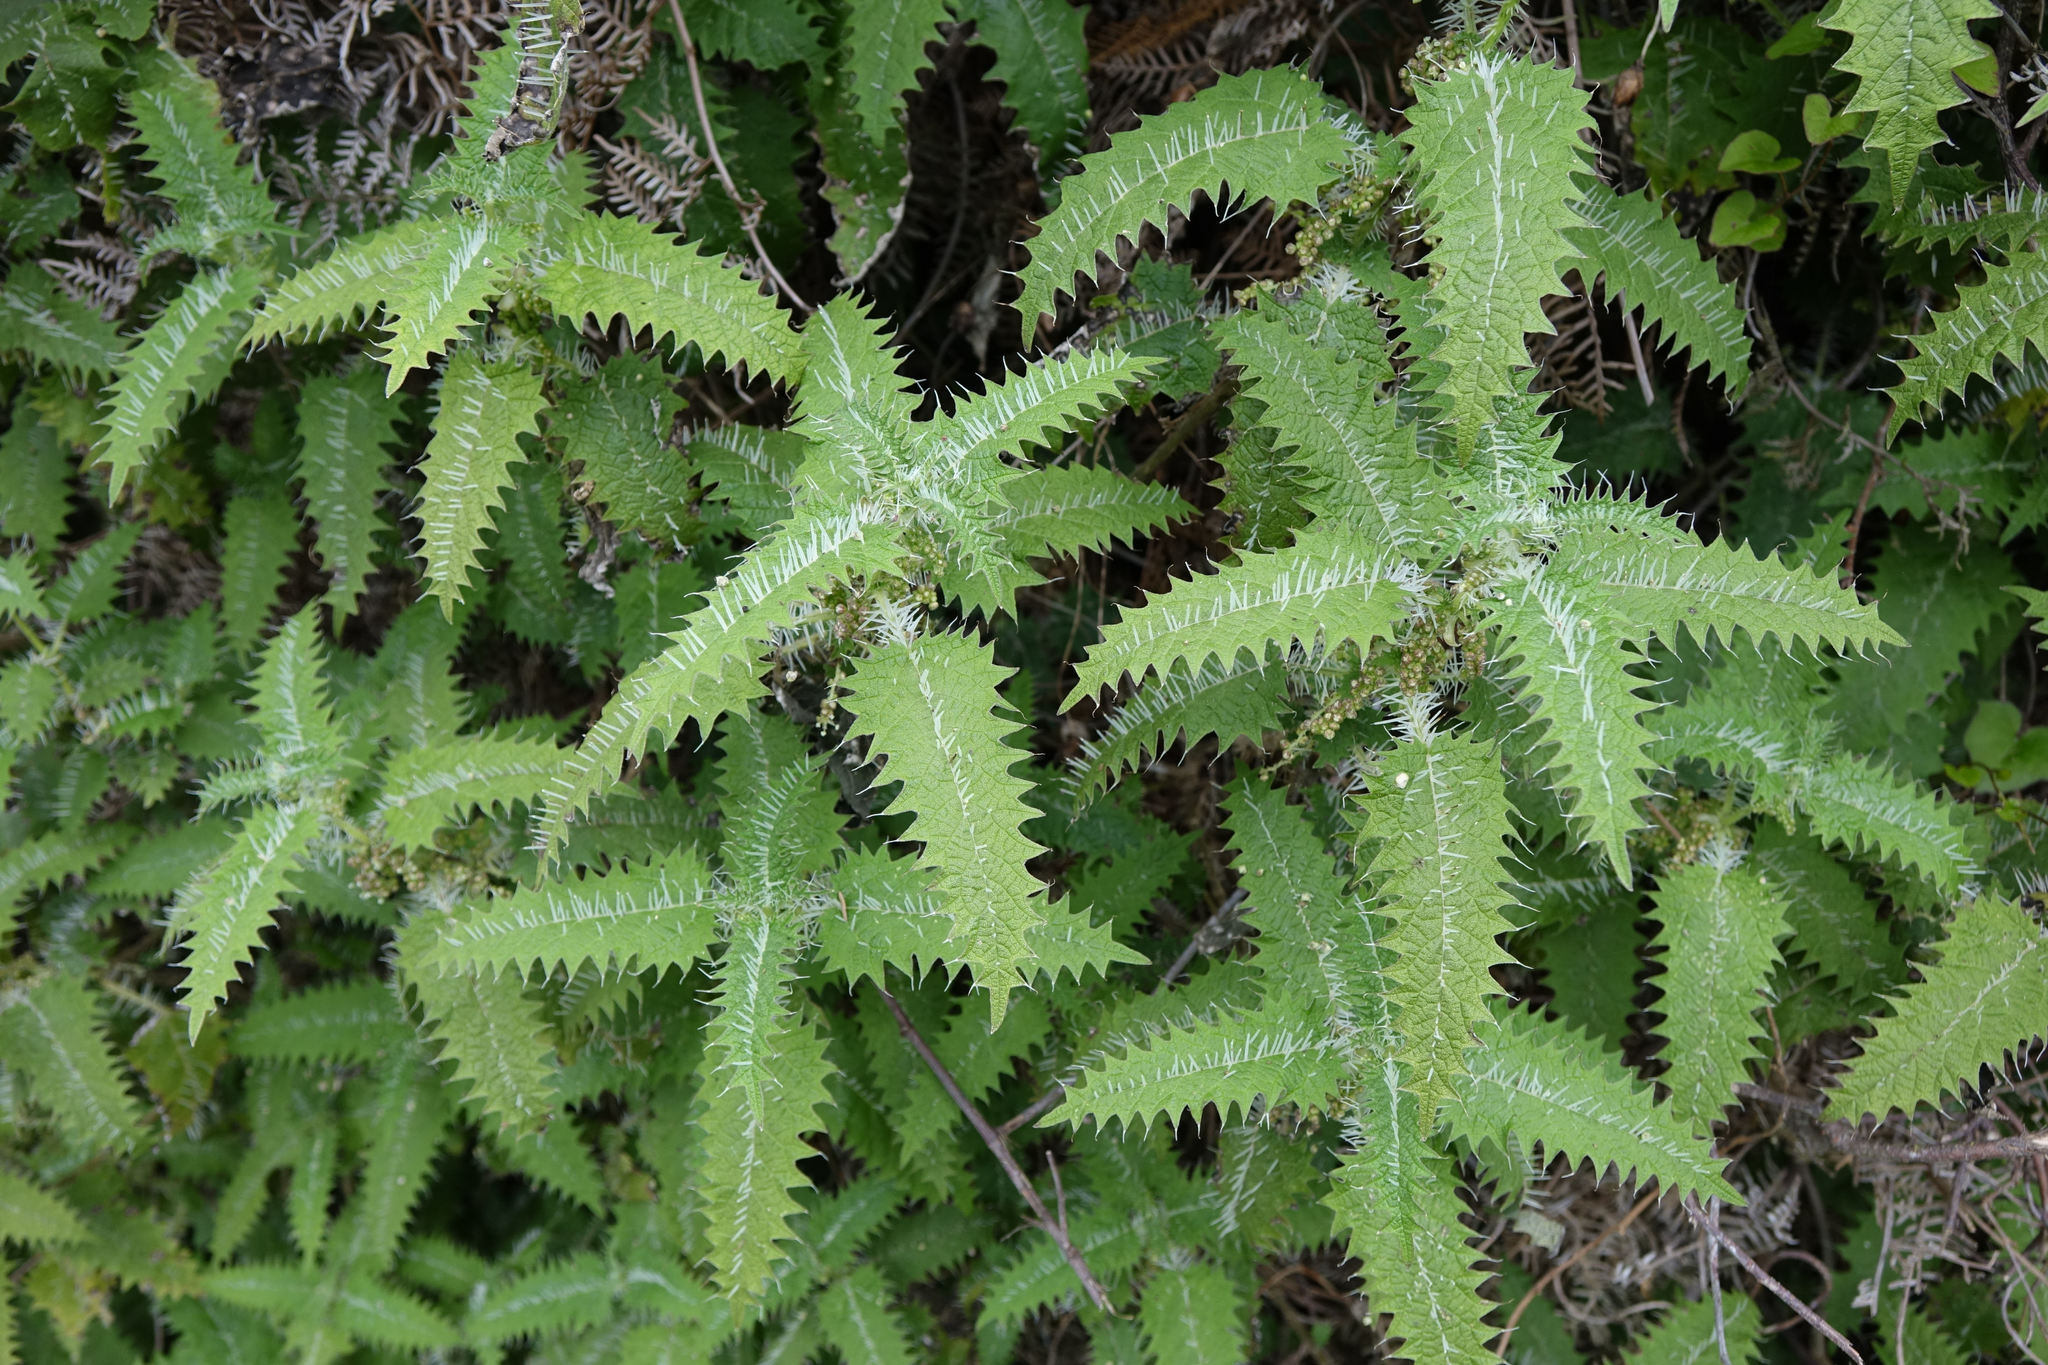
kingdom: Plantae
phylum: Tracheophyta
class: Magnoliopsida
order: Rosales
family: Urticaceae
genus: Urtica
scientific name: Urtica ferox
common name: Tree nettle
